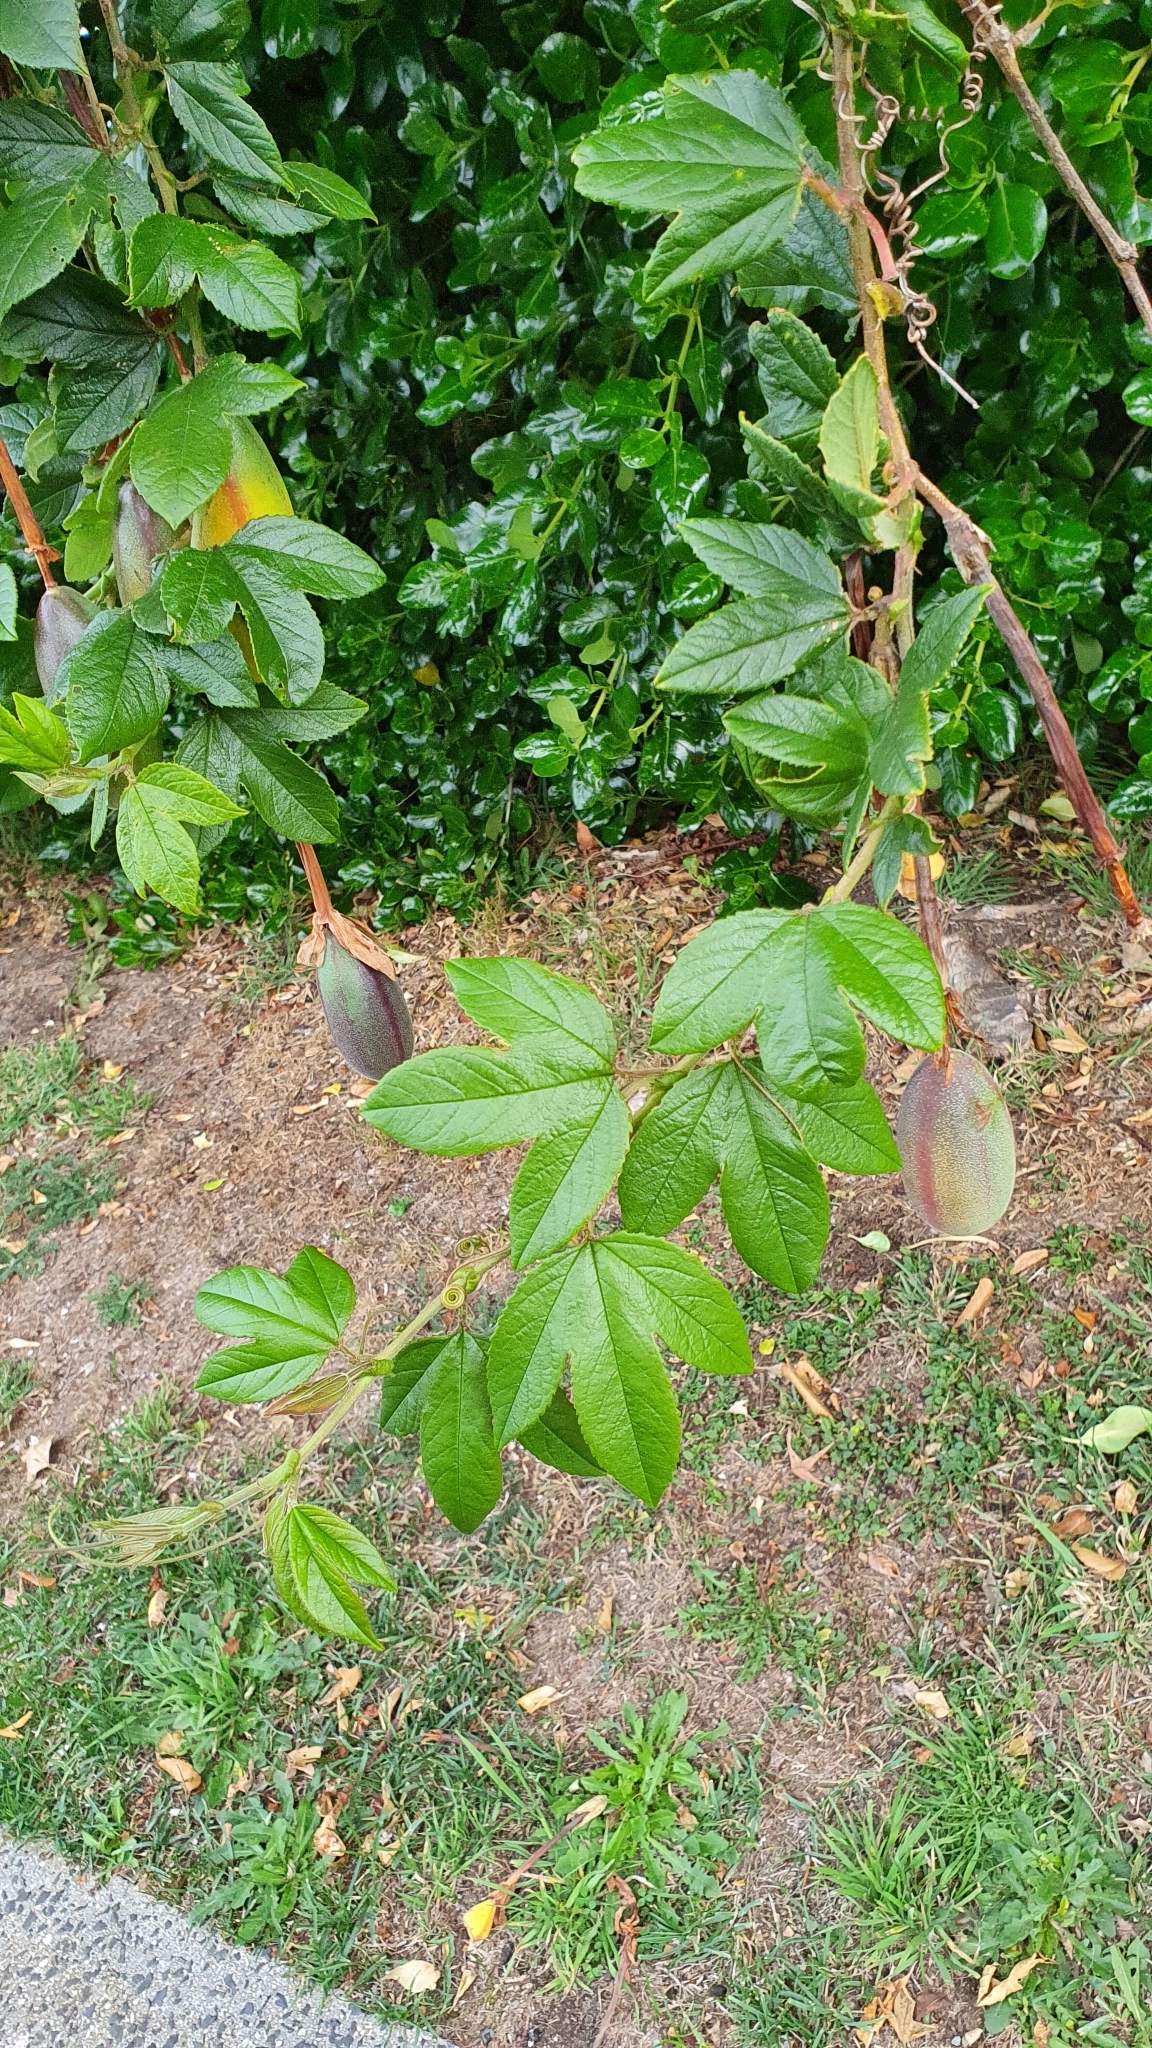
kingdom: Plantae
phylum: Tracheophyta
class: Magnoliopsida
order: Malpighiales
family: Passifloraceae
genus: Passiflora
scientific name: Passiflora tripartita
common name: Banana poka
